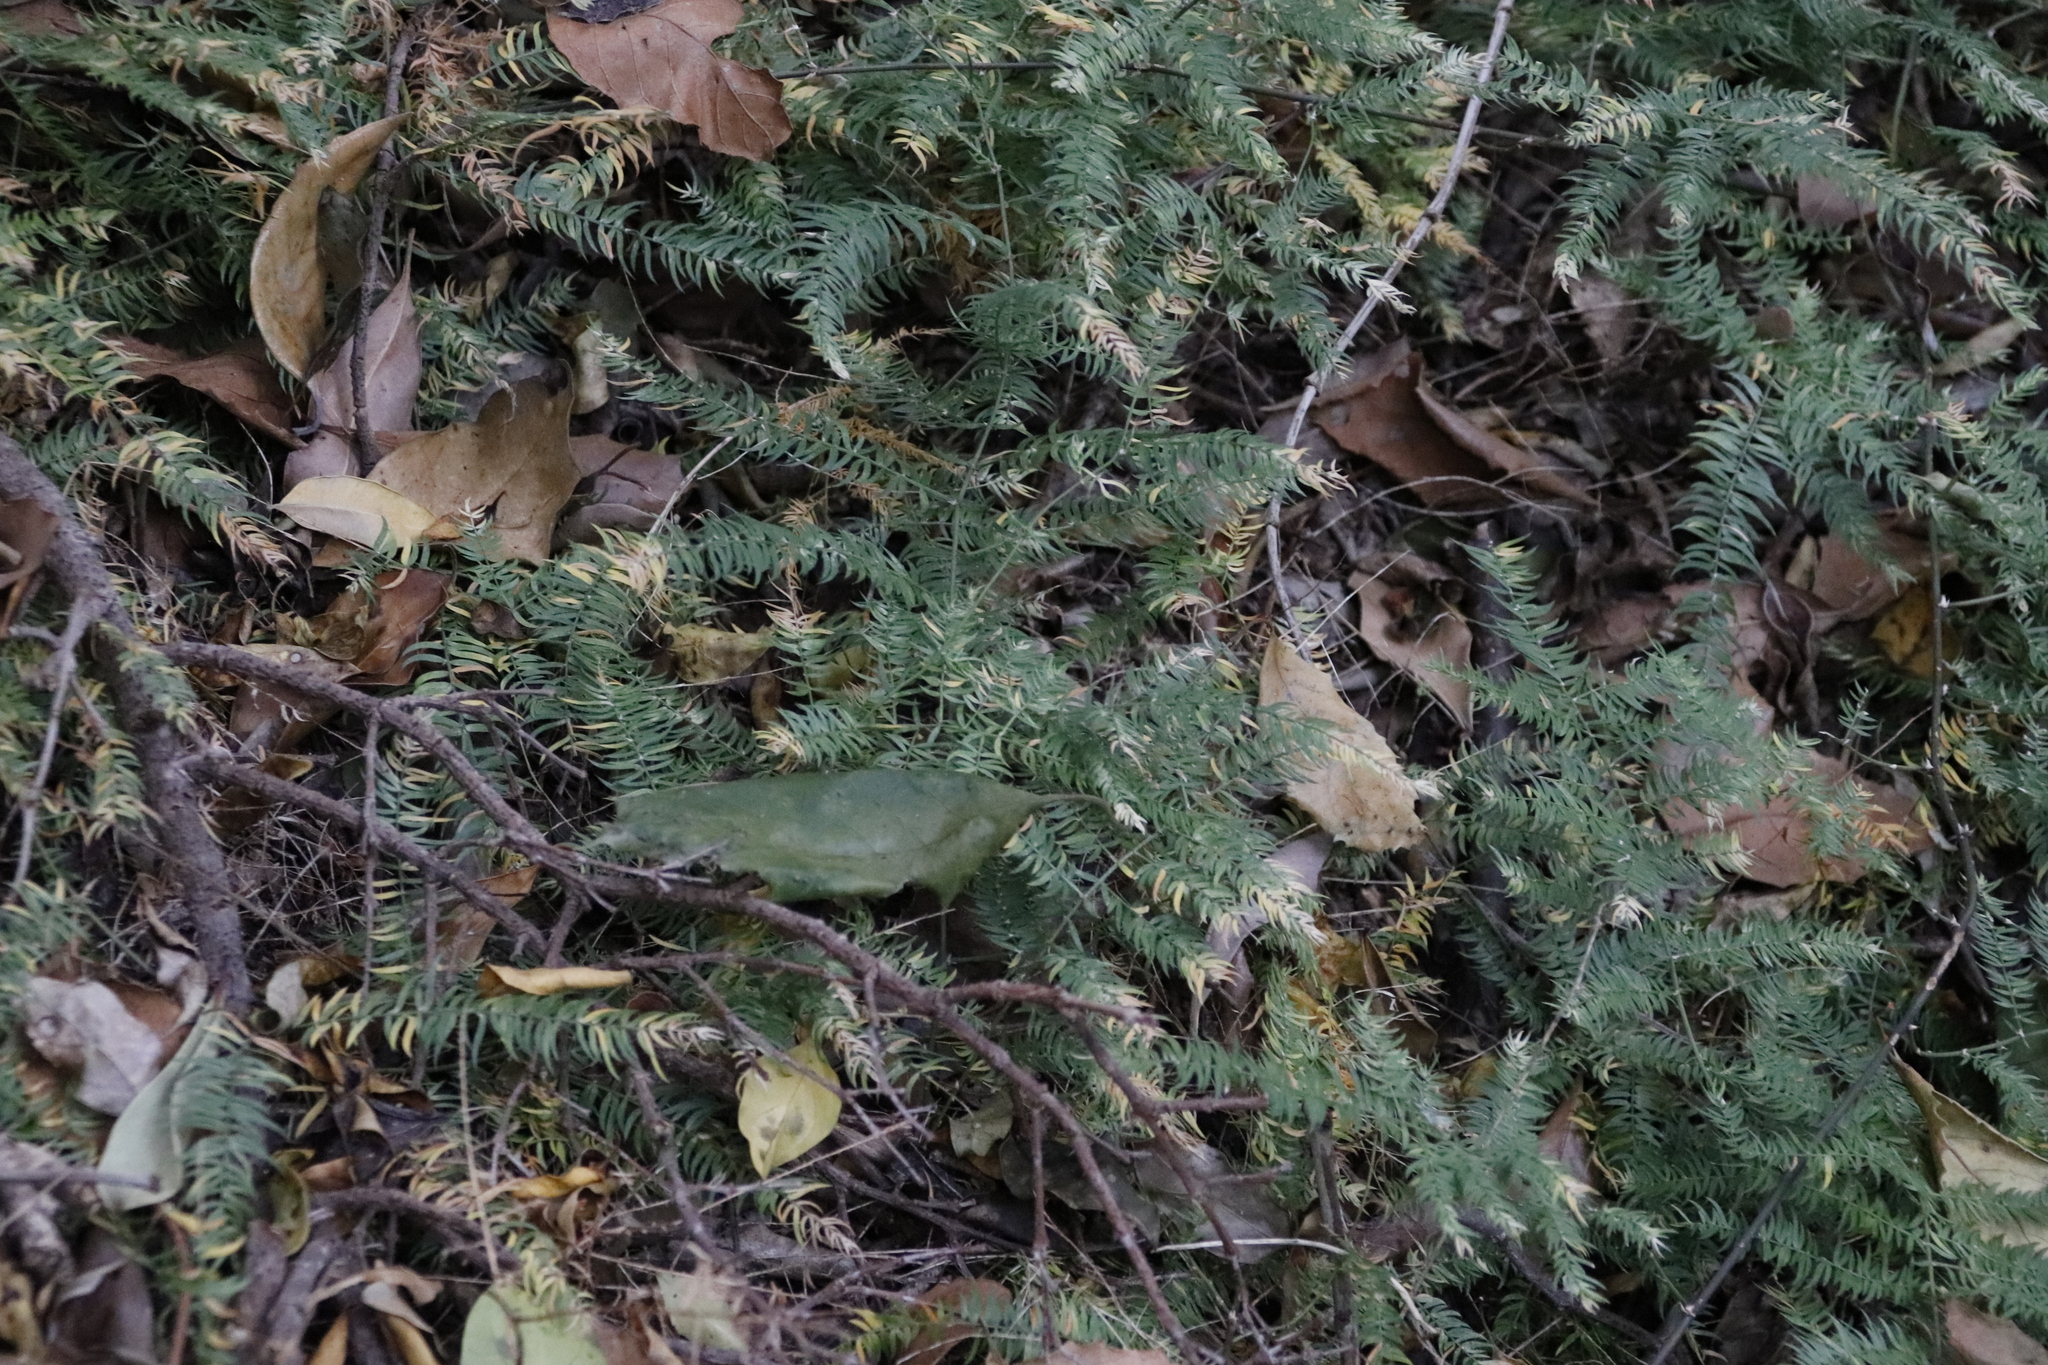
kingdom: Plantae
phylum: Tracheophyta
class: Liliopsida
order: Asparagales
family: Asparagaceae
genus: Asparagus
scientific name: Asparagus scandens
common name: Asparagus-fern
